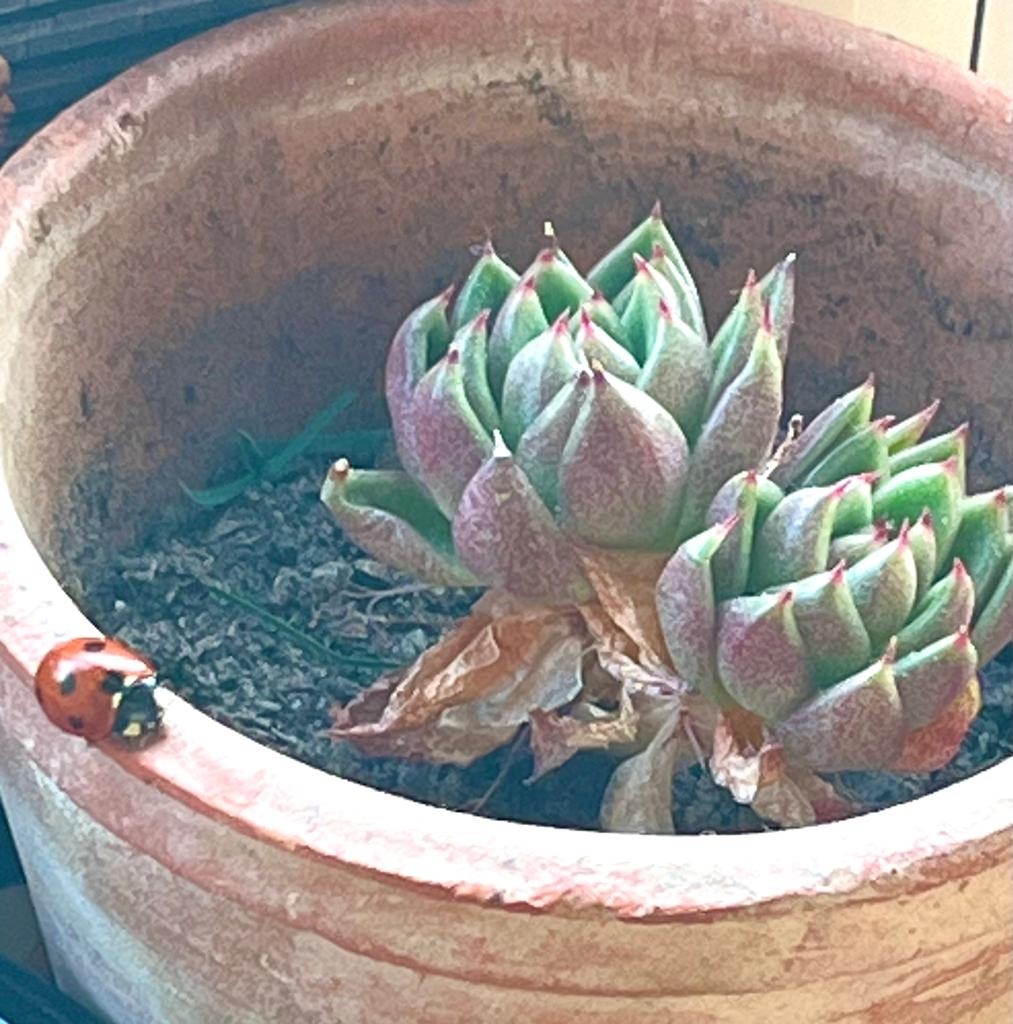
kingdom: Animalia
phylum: Arthropoda
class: Insecta
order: Coleoptera
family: Coccinellidae
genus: Coccinella
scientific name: Coccinella septempunctata
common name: Sevenspotted lady beetle
